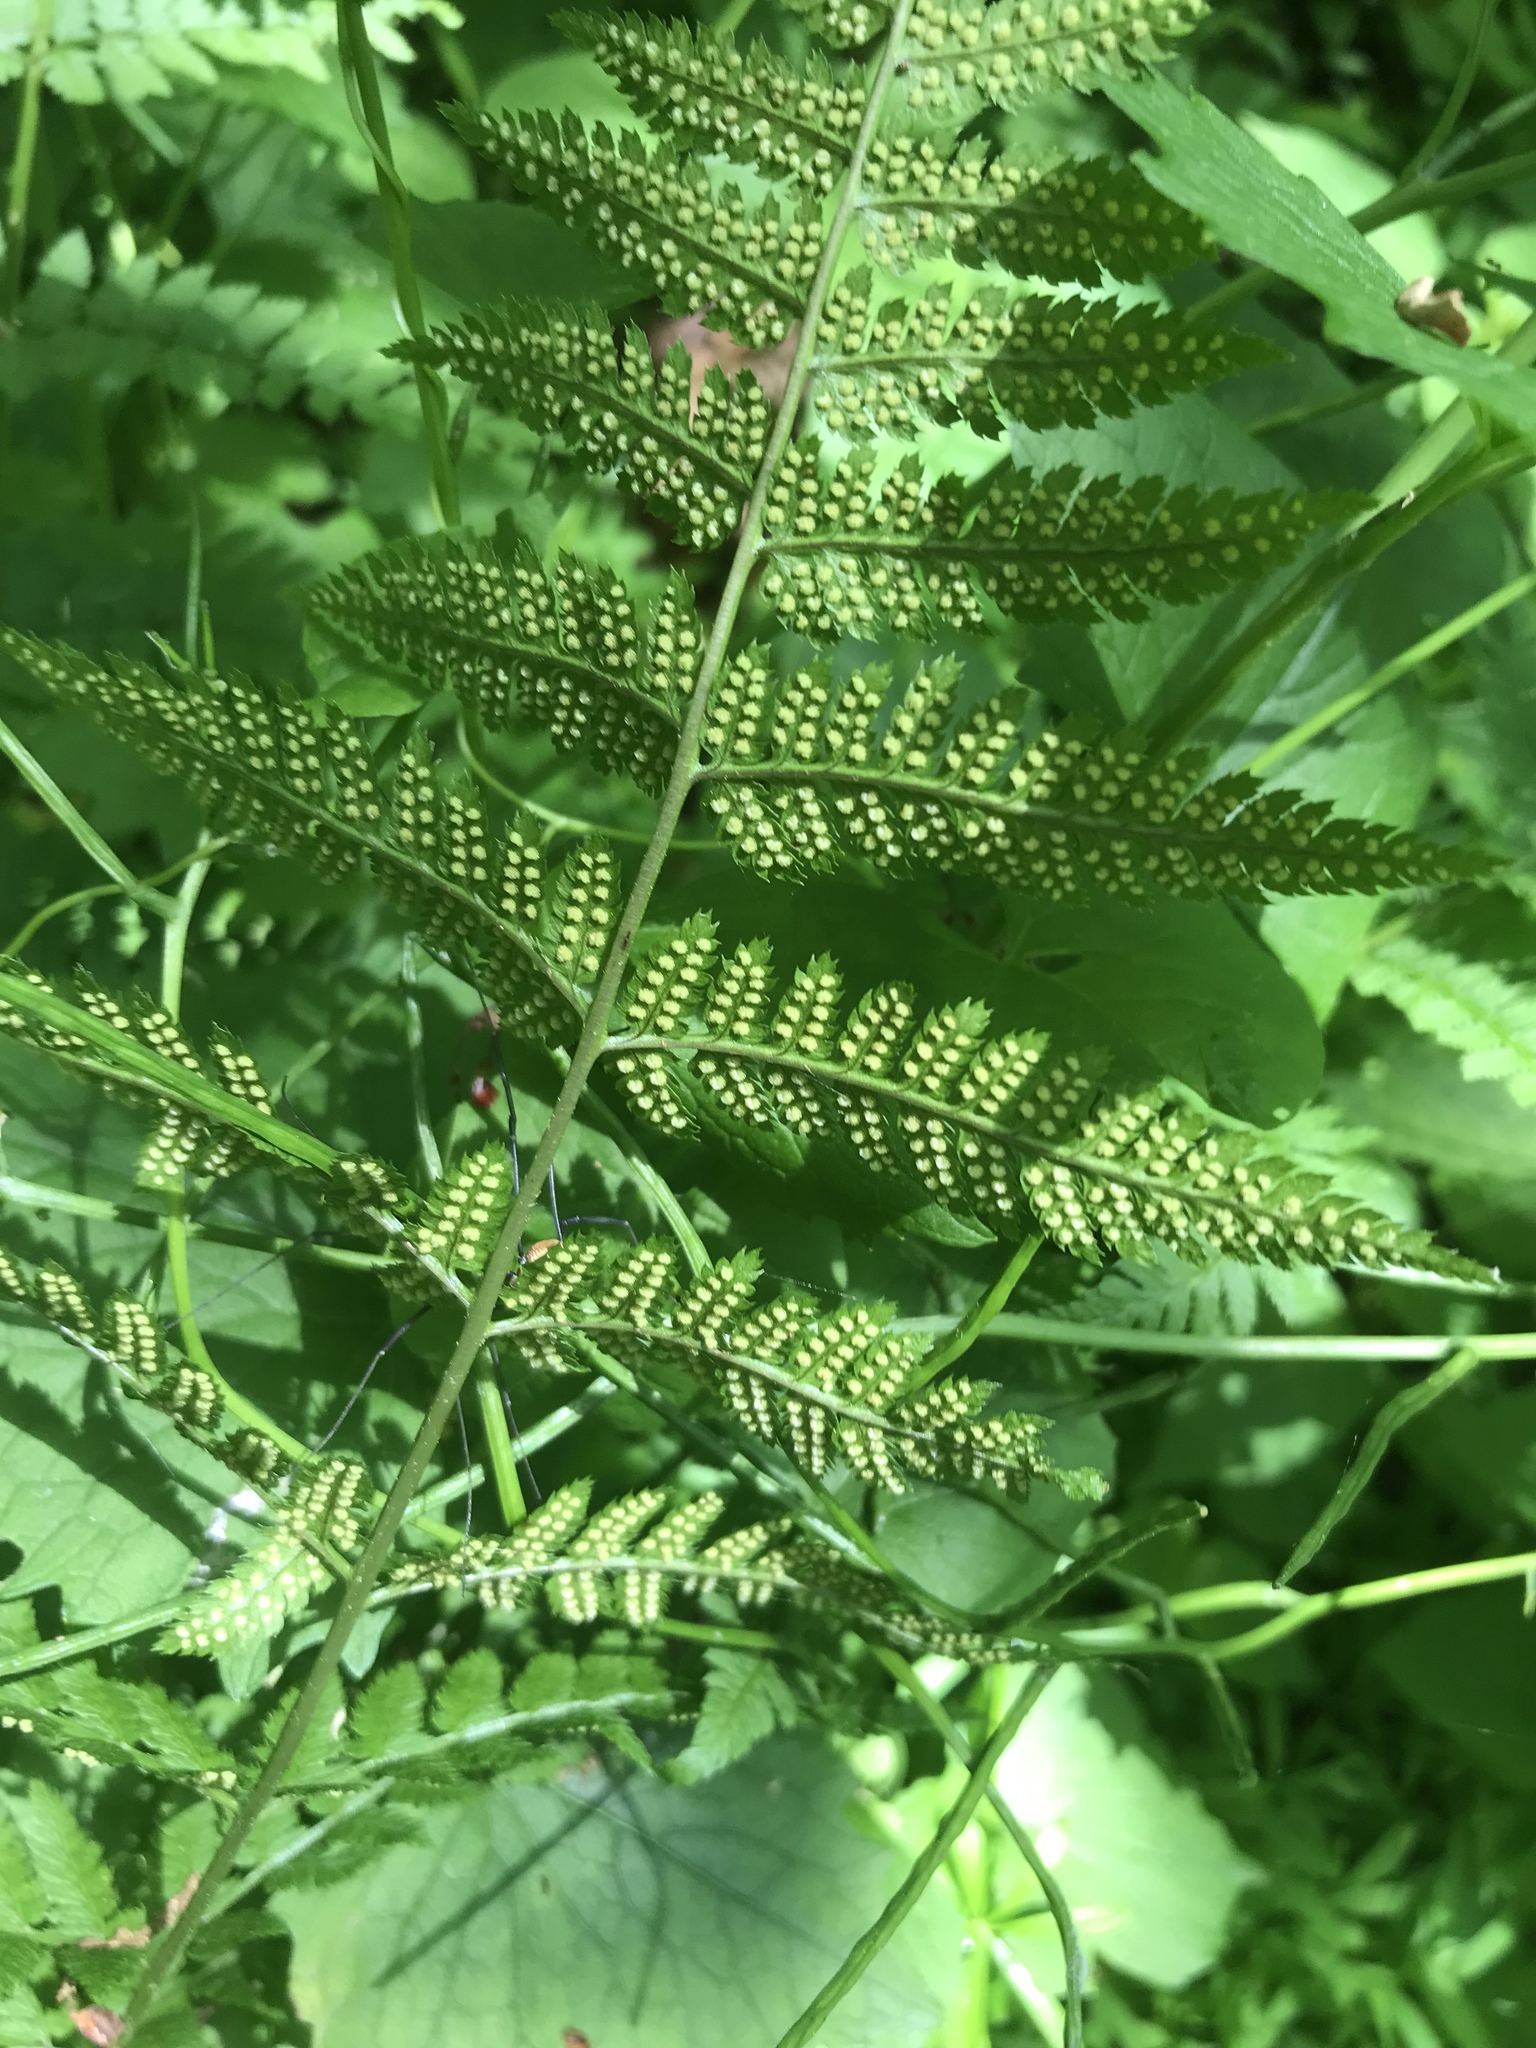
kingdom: Plantae
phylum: Tracheophyta
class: Polypodiopsida
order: Polypodiales
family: Dryopteridaceae
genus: Dryopteris
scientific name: Dryopteris carthusiana
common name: Narrow buckler-fern
